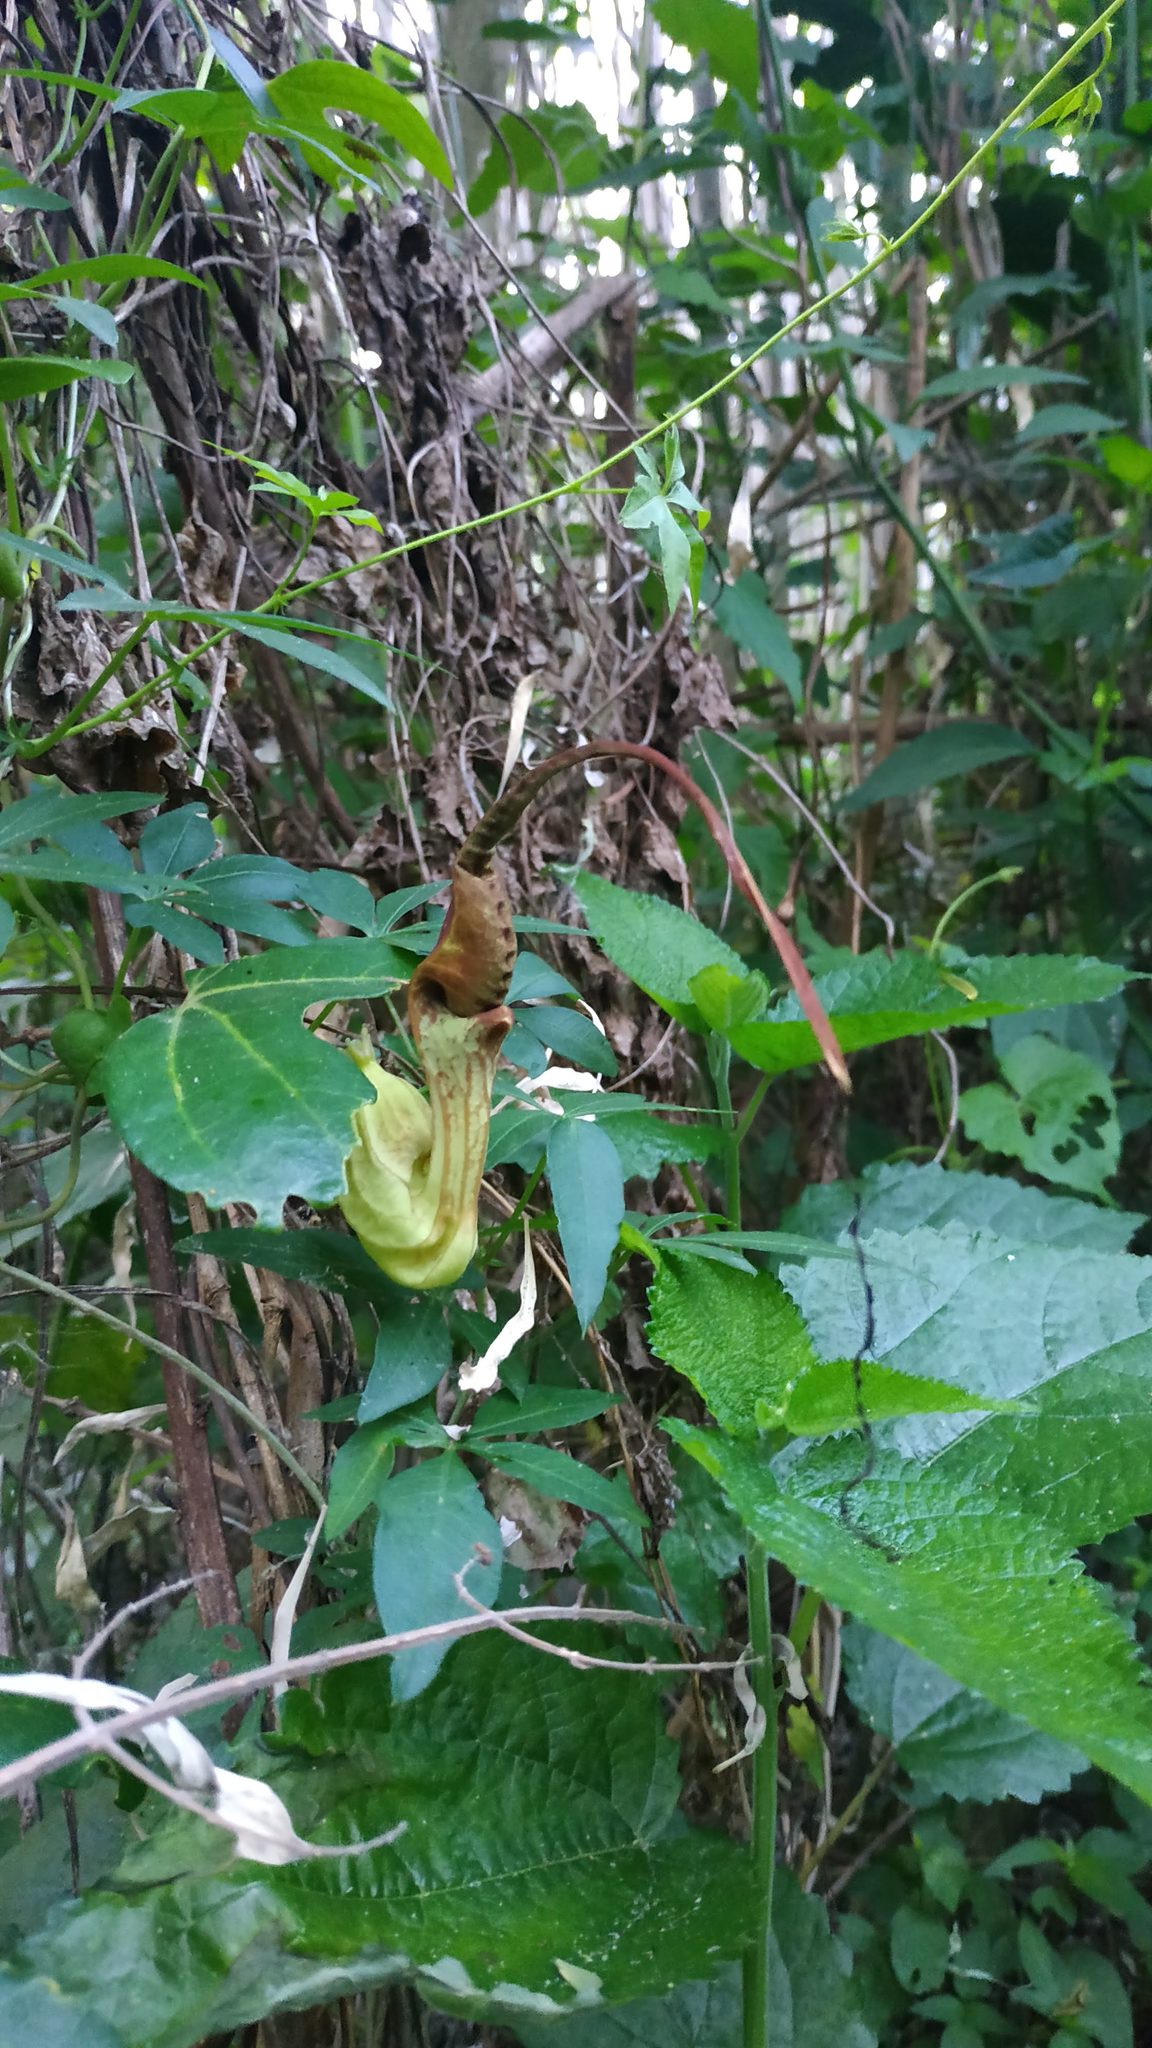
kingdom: Plantae
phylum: Tracheophyta
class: Magnoliopsida
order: Piperales
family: Aristolochiaceae
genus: Aristolochia
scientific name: Aristolochia macroura
